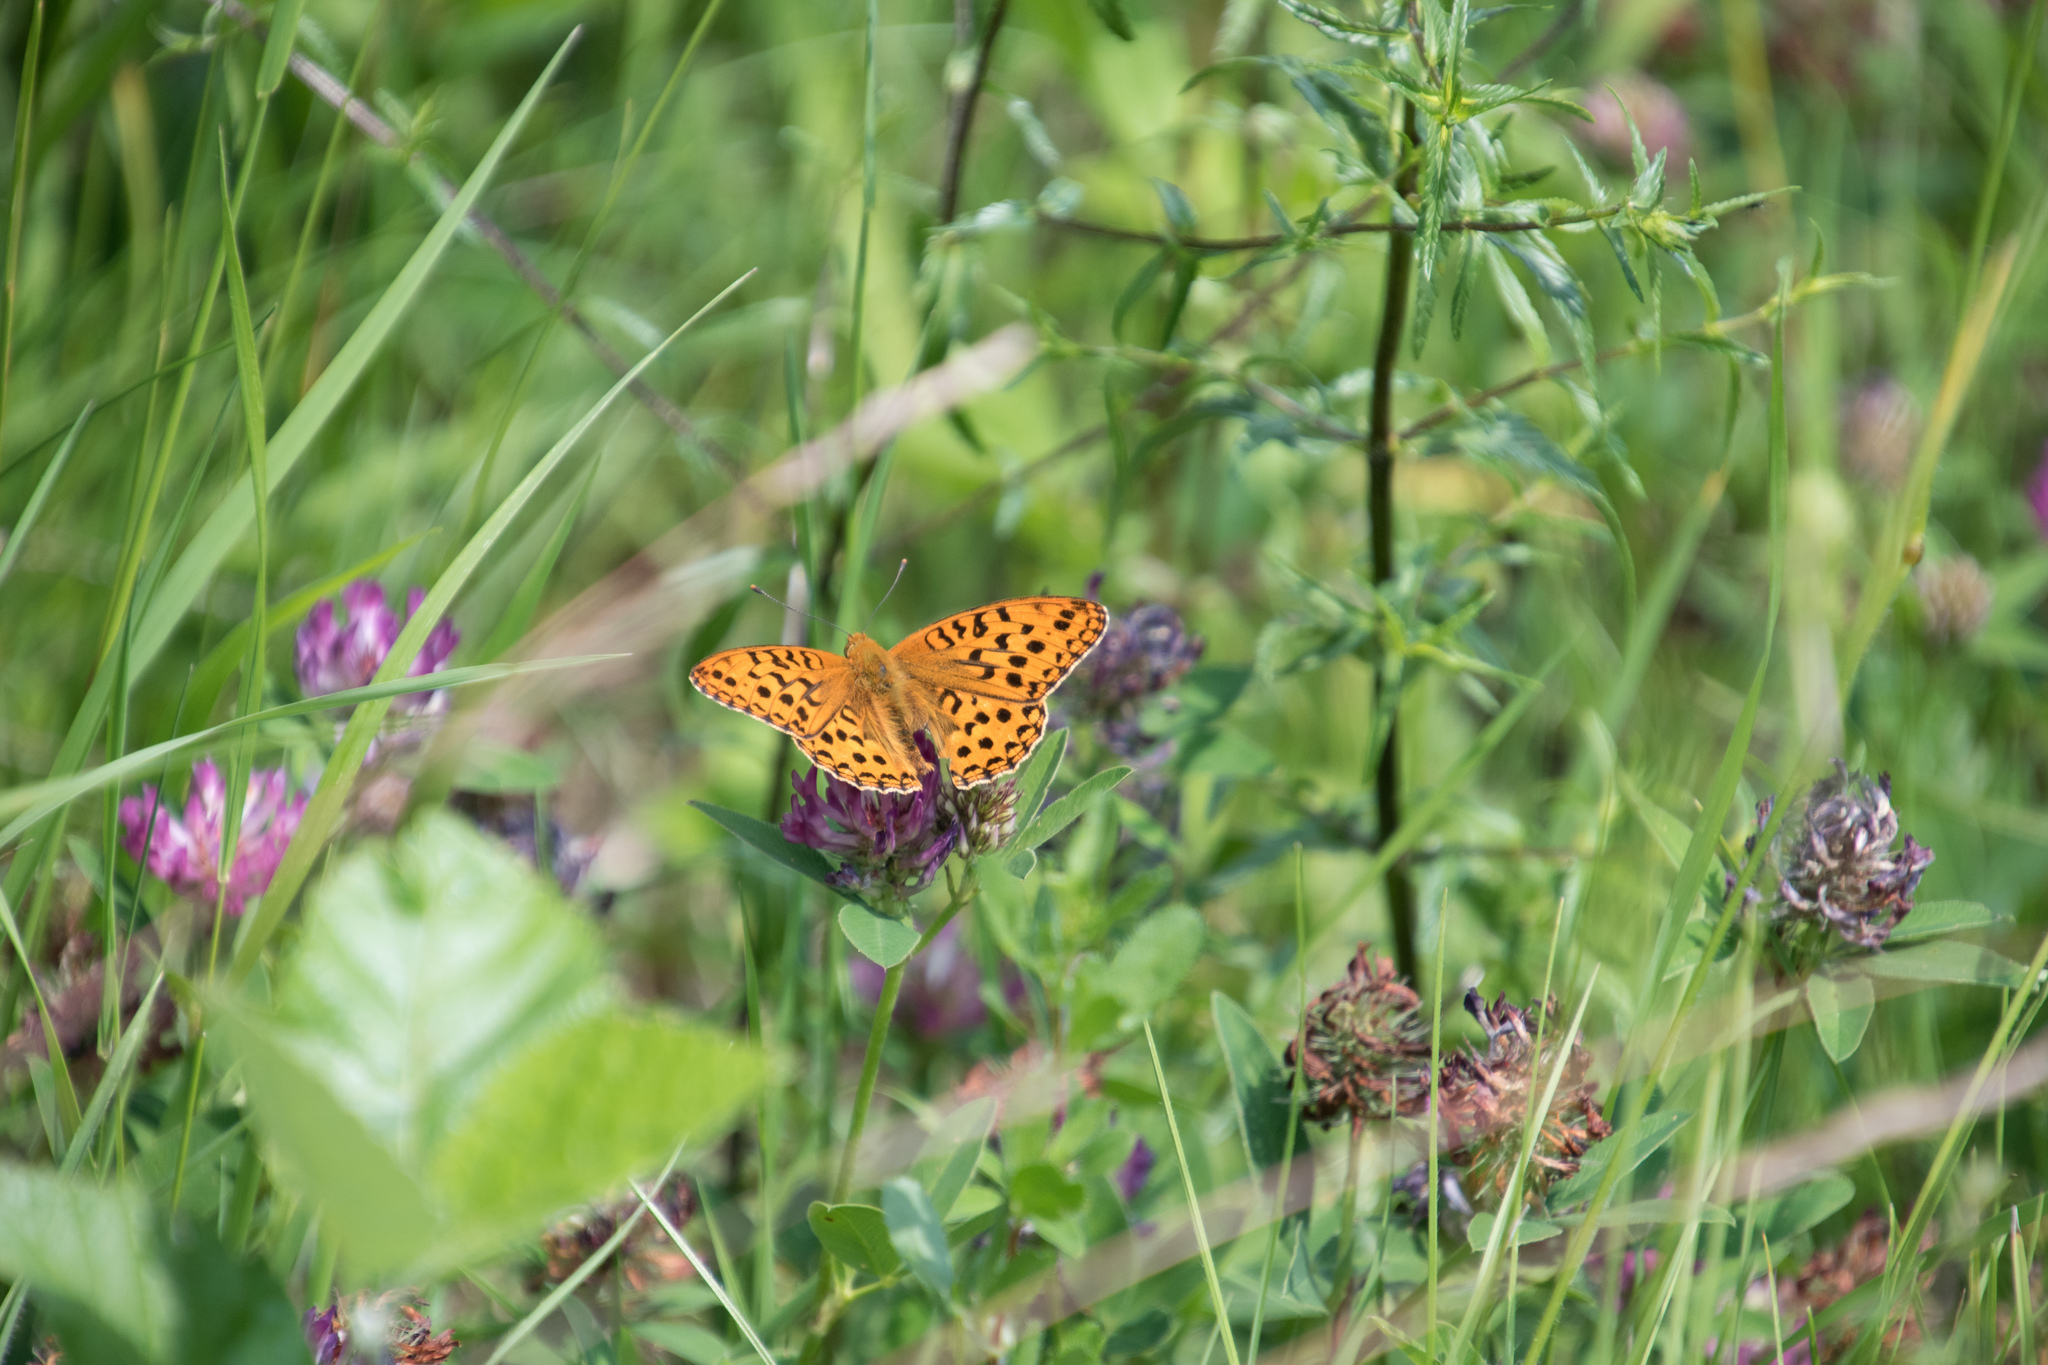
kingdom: Animalia
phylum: Arthropoda
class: Insecta
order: Lepidoptera
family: Nymphalidae
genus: Fabriciana
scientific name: Fabriciana adippe
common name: High brown fritillary
